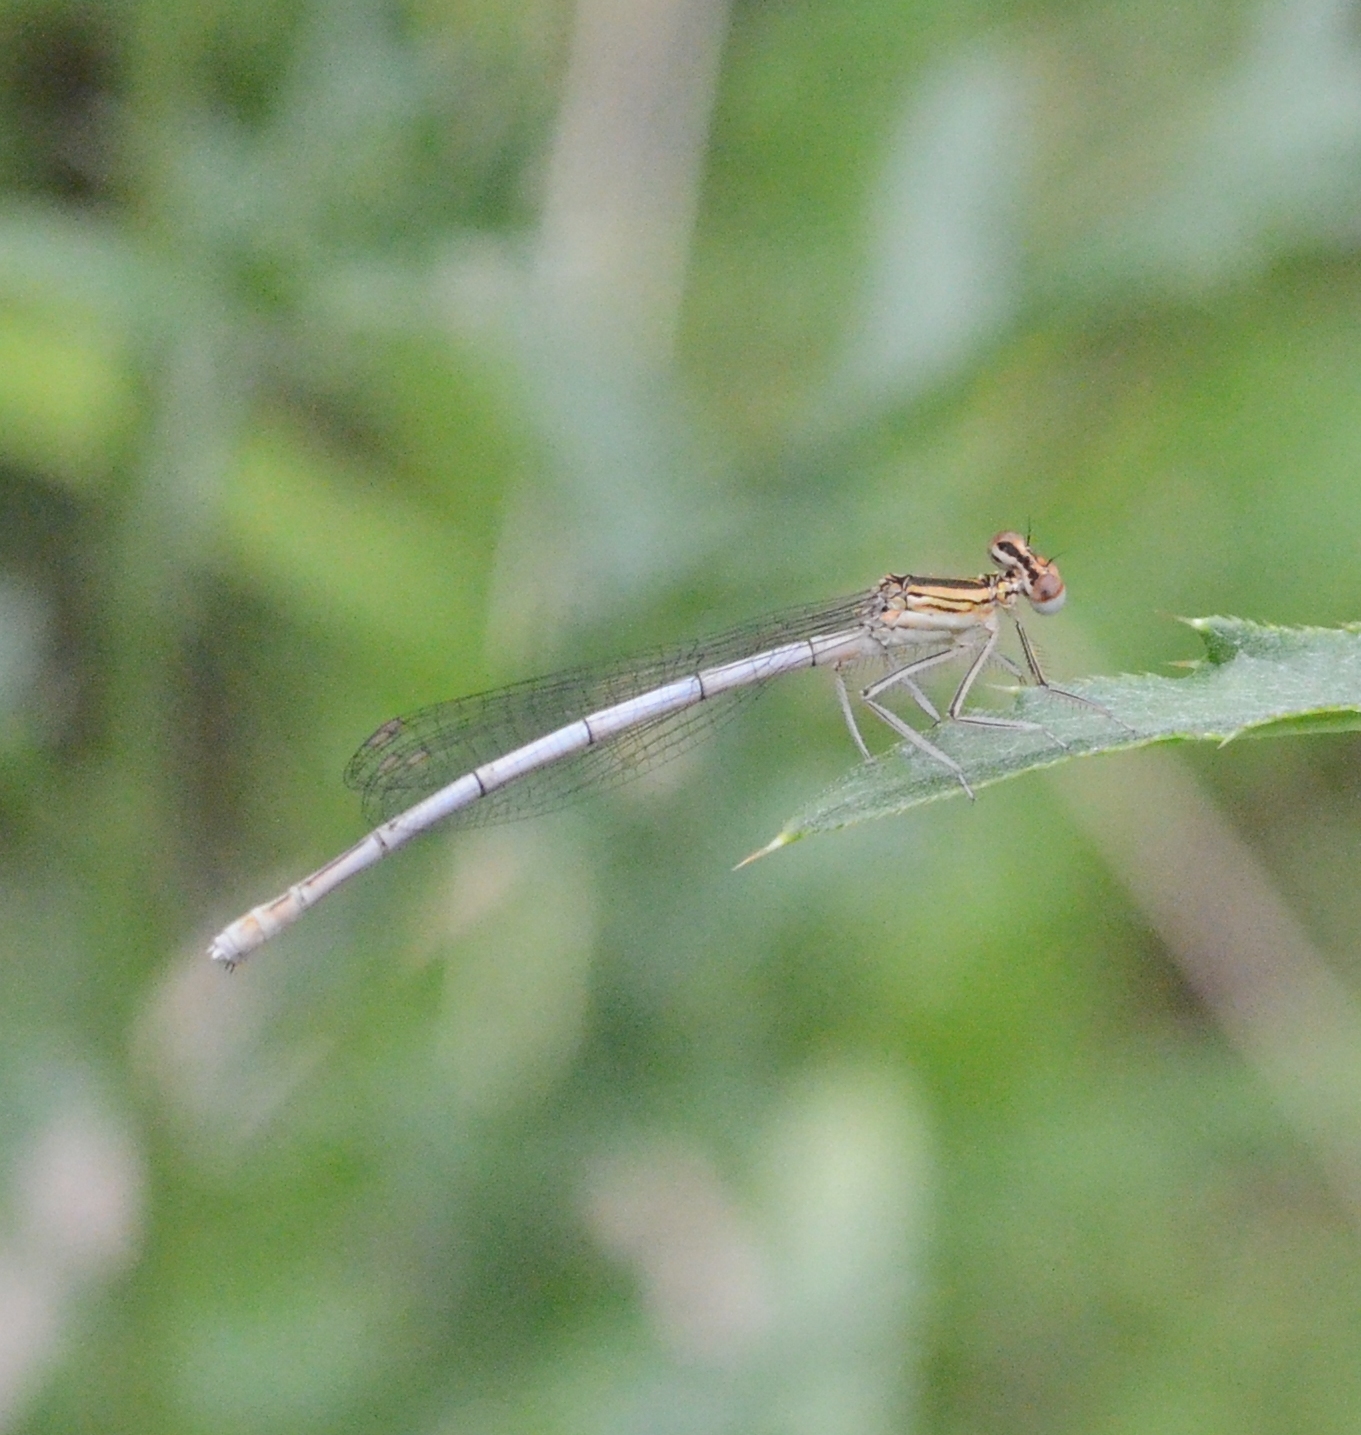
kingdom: Animalia
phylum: Arthropoda
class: Insecta
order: Odonata
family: Platycnemididae
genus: Platycnemis
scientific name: Platycnemis pennipes
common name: White-legged damselfly
